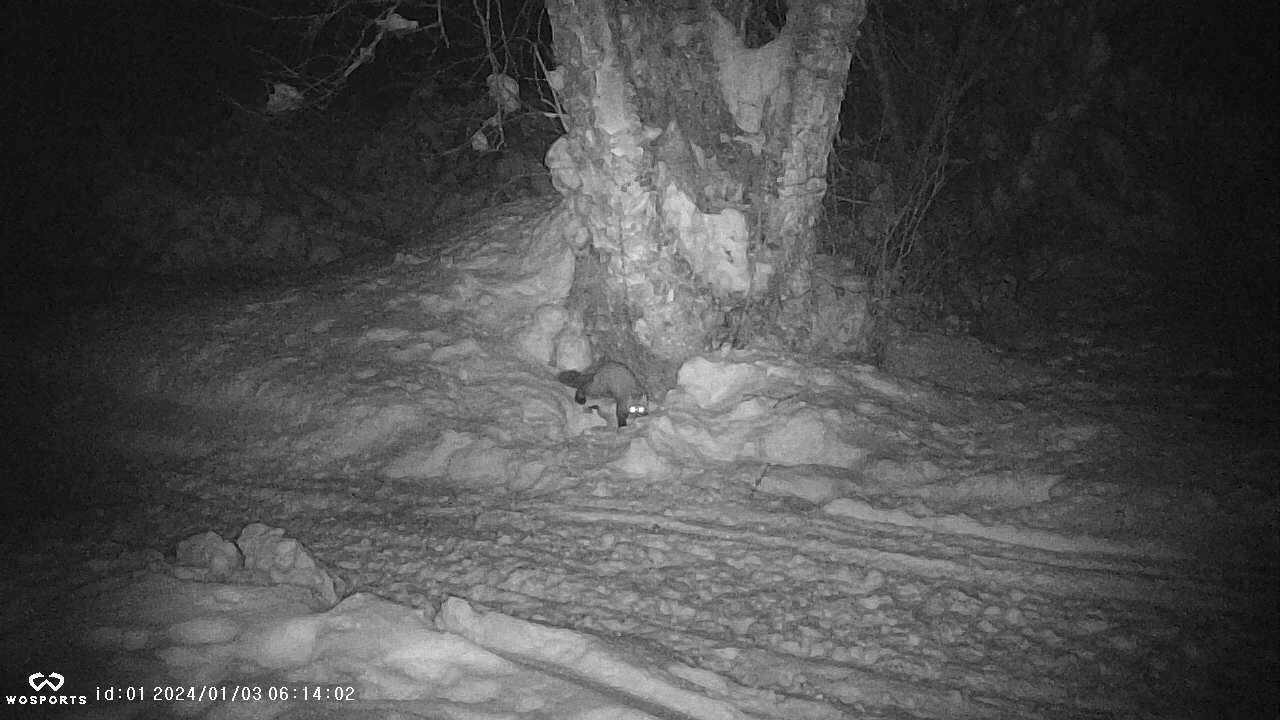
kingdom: Animalia
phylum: Chordata
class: Mammalia
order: Carnivora
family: Mustelidae
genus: Martes
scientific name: Martes americana
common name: American marten
